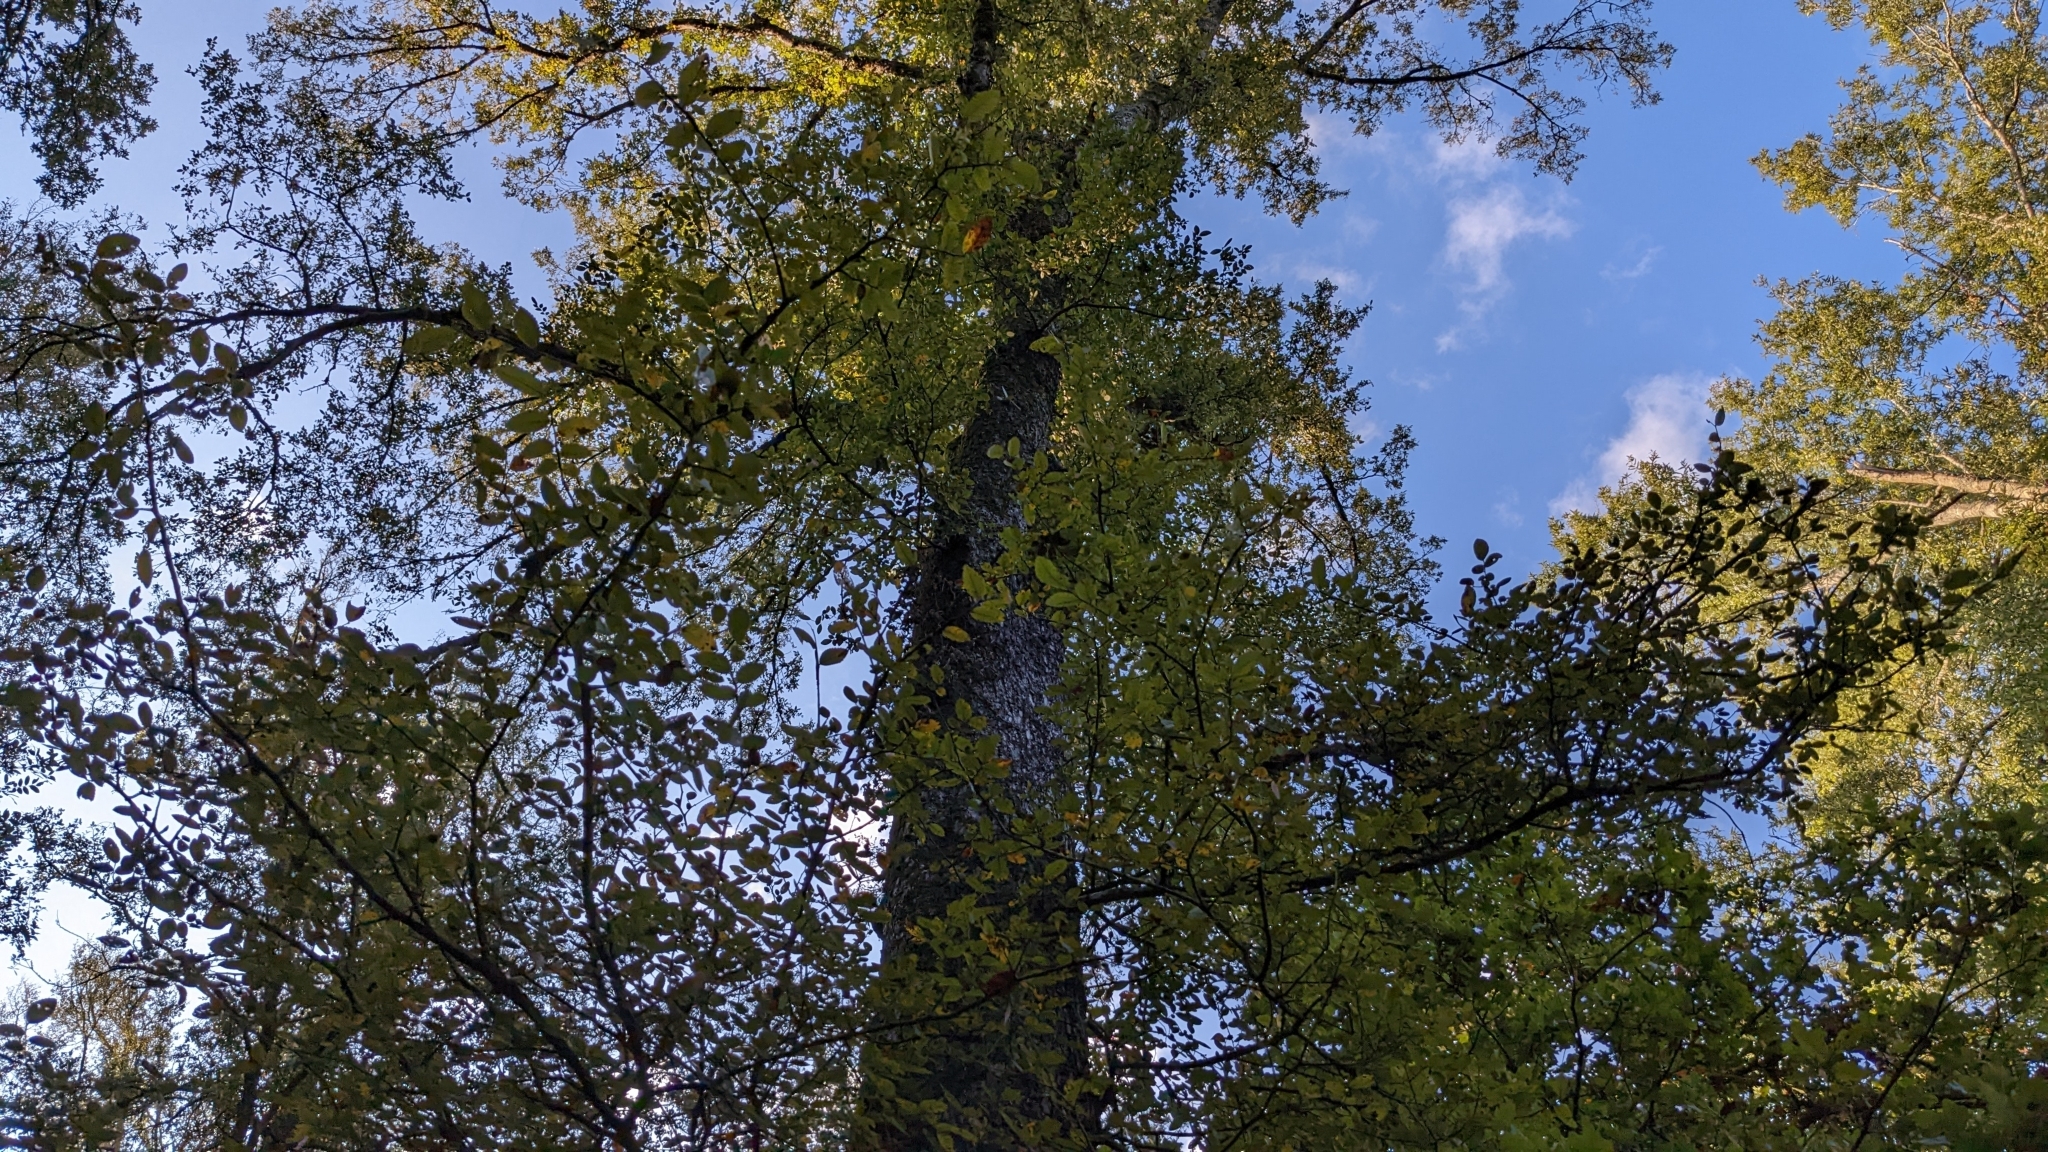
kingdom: Plantae
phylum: Tracheophyta
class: Magnoliopsida
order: Rosales
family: Ulmaceae
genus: Ulmus
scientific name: Ulmus crassifolia
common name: Basket elm
